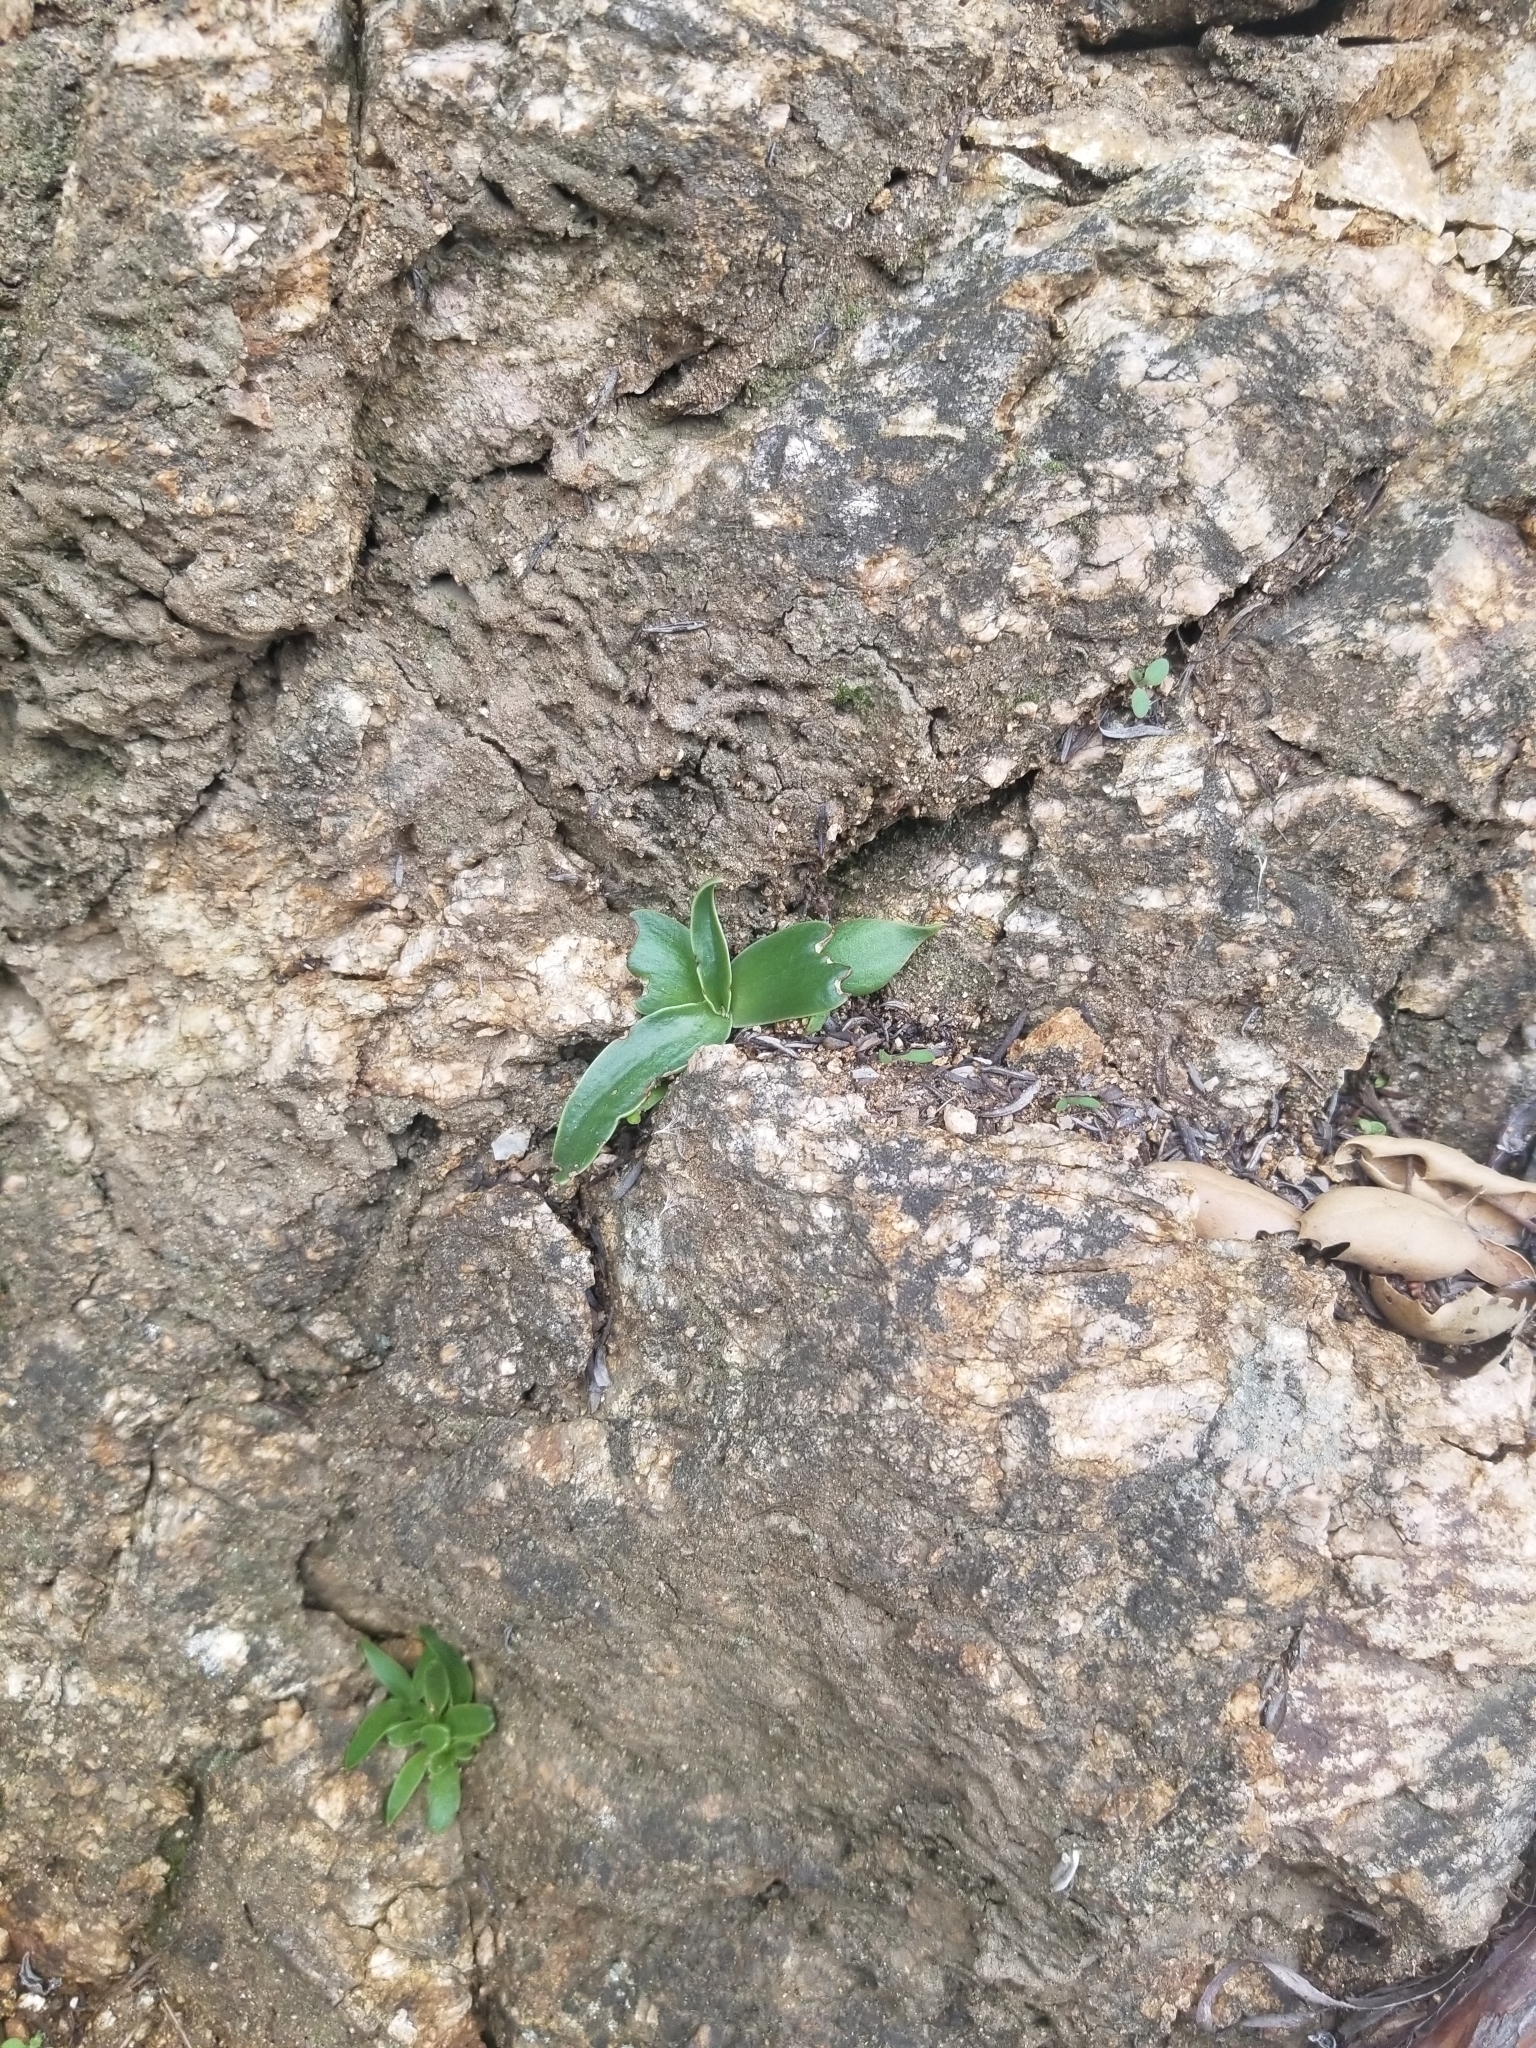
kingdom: Plantae
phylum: Tracheophyta
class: Magnoliopsida
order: Saxifragales
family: Crassulaceae
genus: Dudleya
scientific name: Dudleya lanceolata
